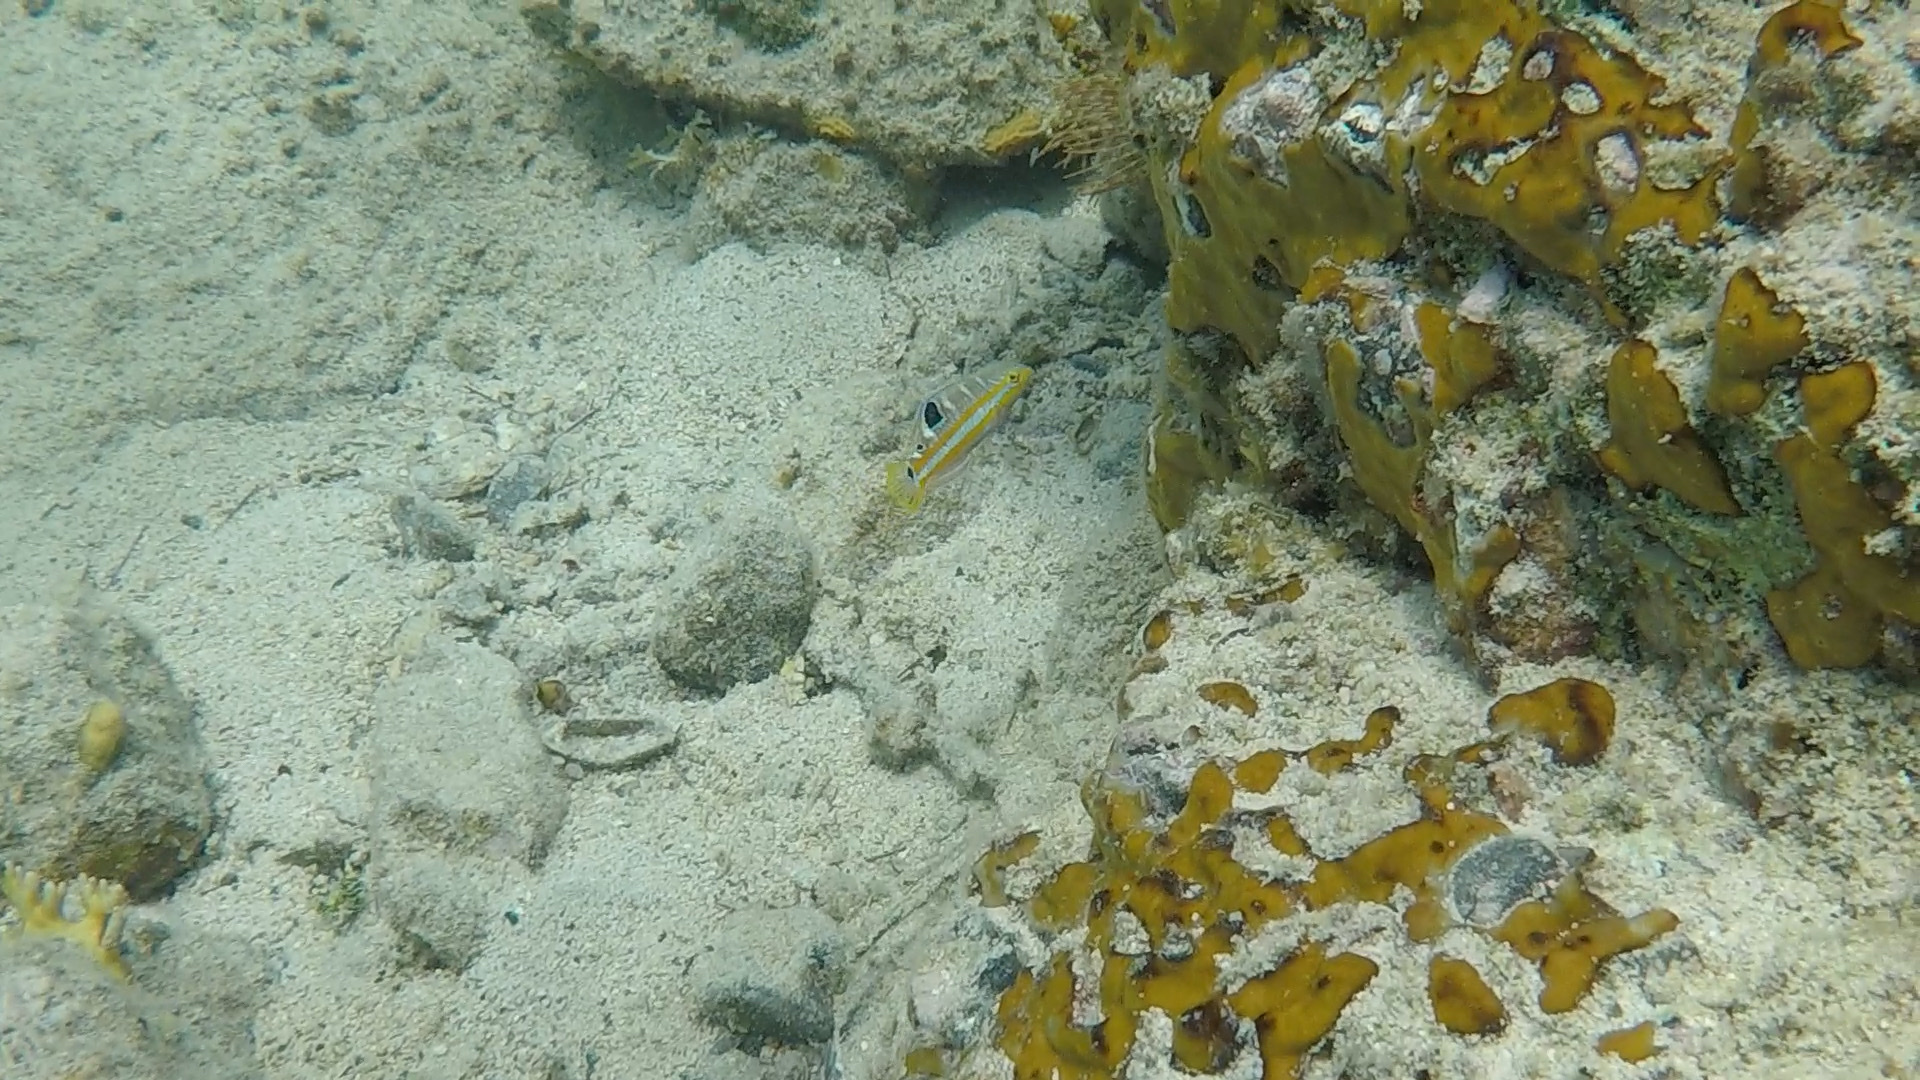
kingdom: Animalia
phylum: Chordata
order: Perciformes
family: Labridae
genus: Halichoeres
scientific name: Halichoeres radiatus
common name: Puddingwife
